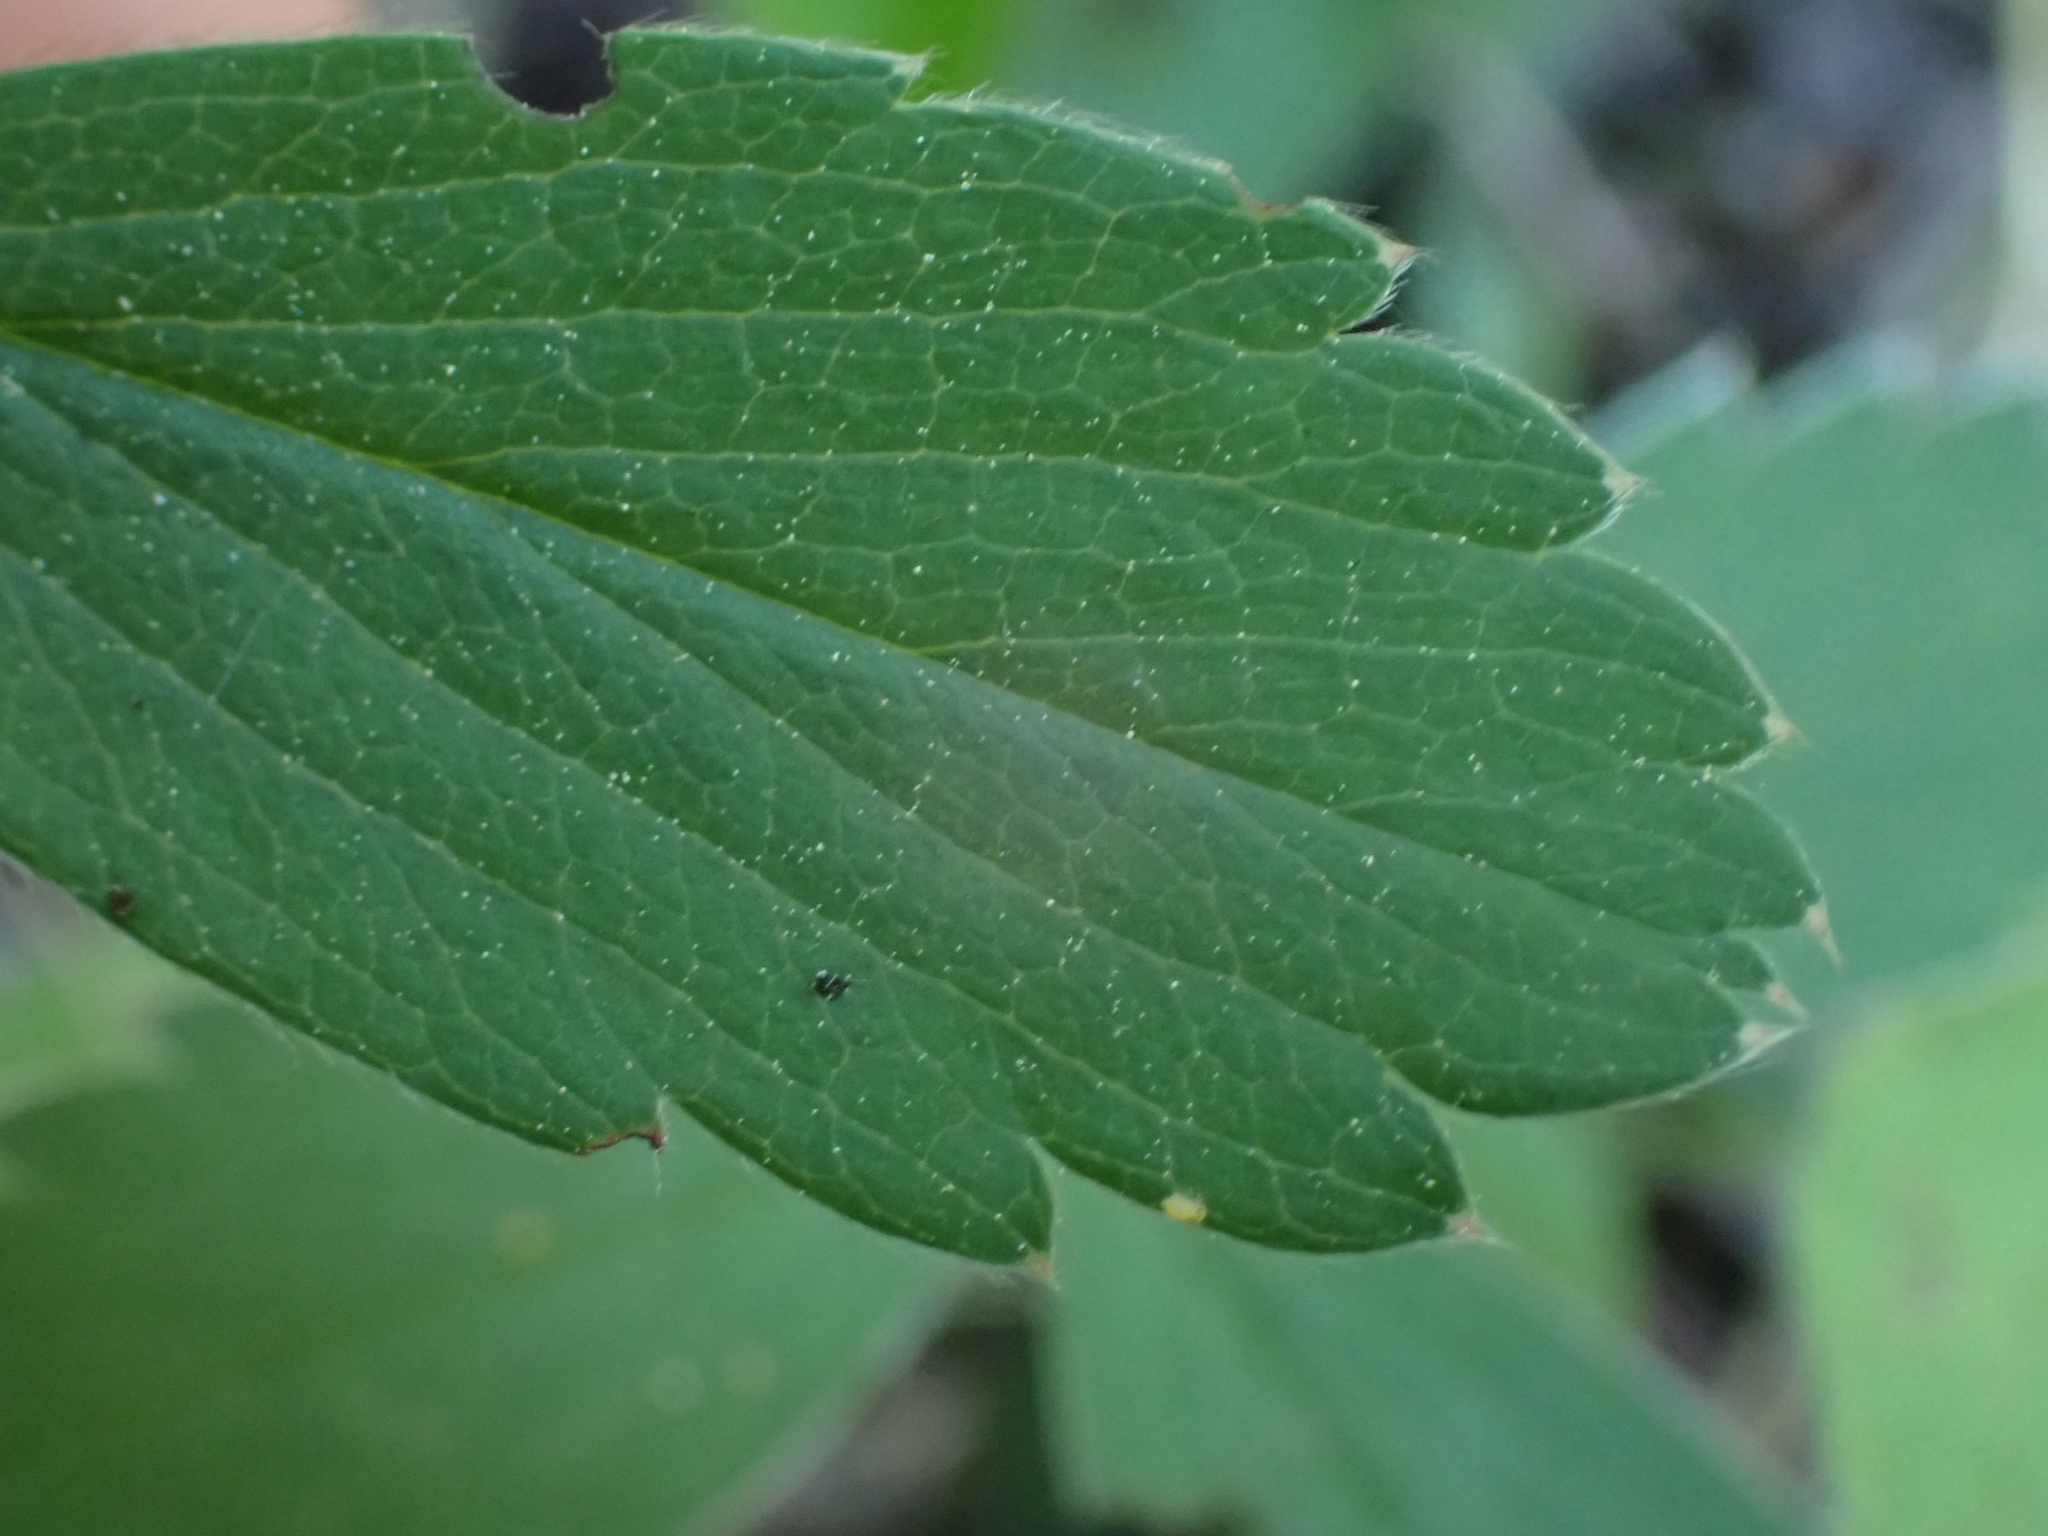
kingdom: Plantae
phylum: Tracheophyta
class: Magnoliopsida
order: Rosales
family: Rosaceae
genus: Fragaria
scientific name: Fragaria virginiana
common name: Thickleaved wild strawberry
